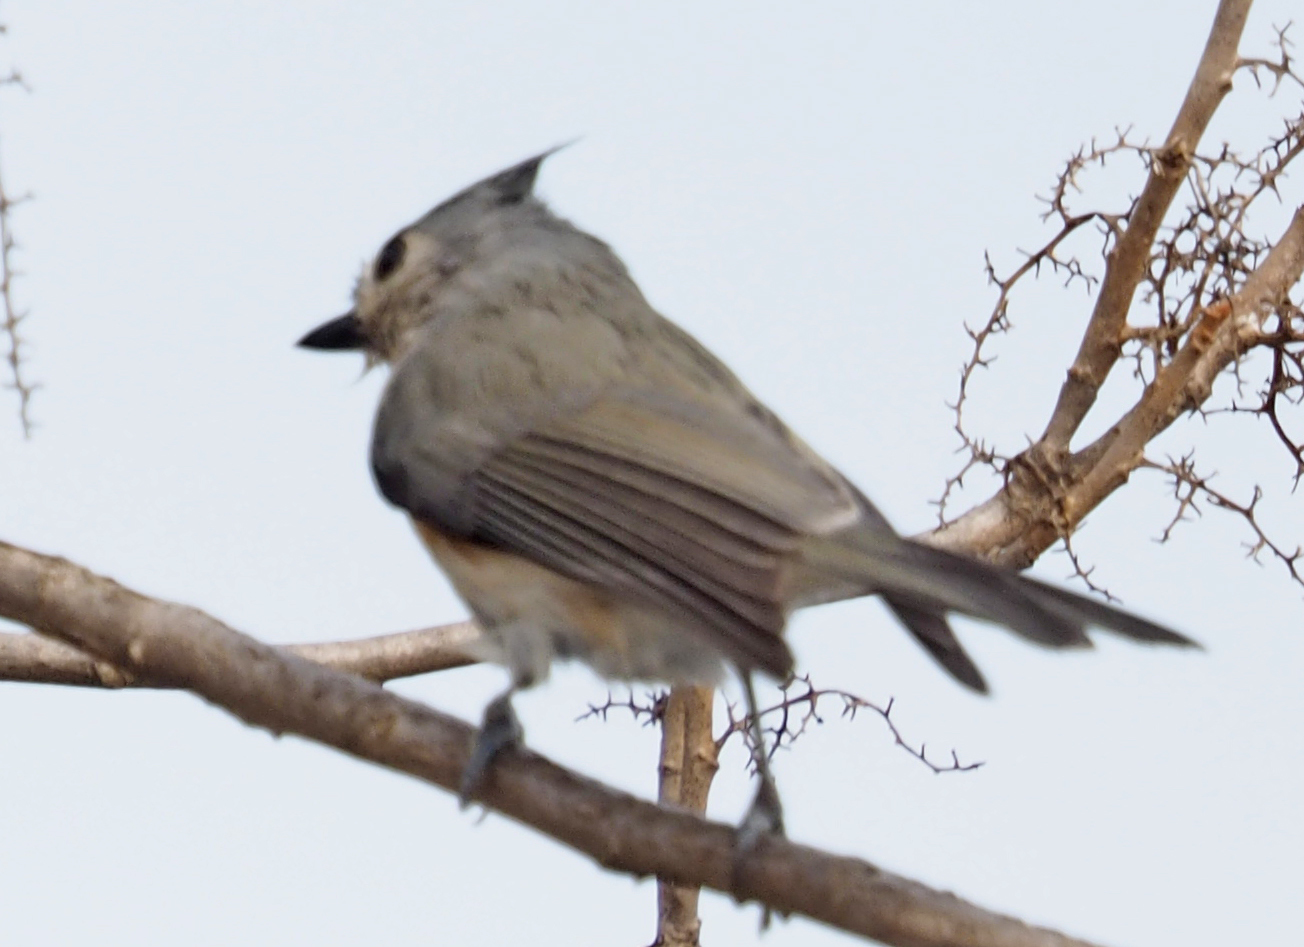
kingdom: Animalia
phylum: Chordata
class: Aves
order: Passeriformes
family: Paridae
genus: Baeolophus
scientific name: Baeolophus bicolor
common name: Tufted titmouse
